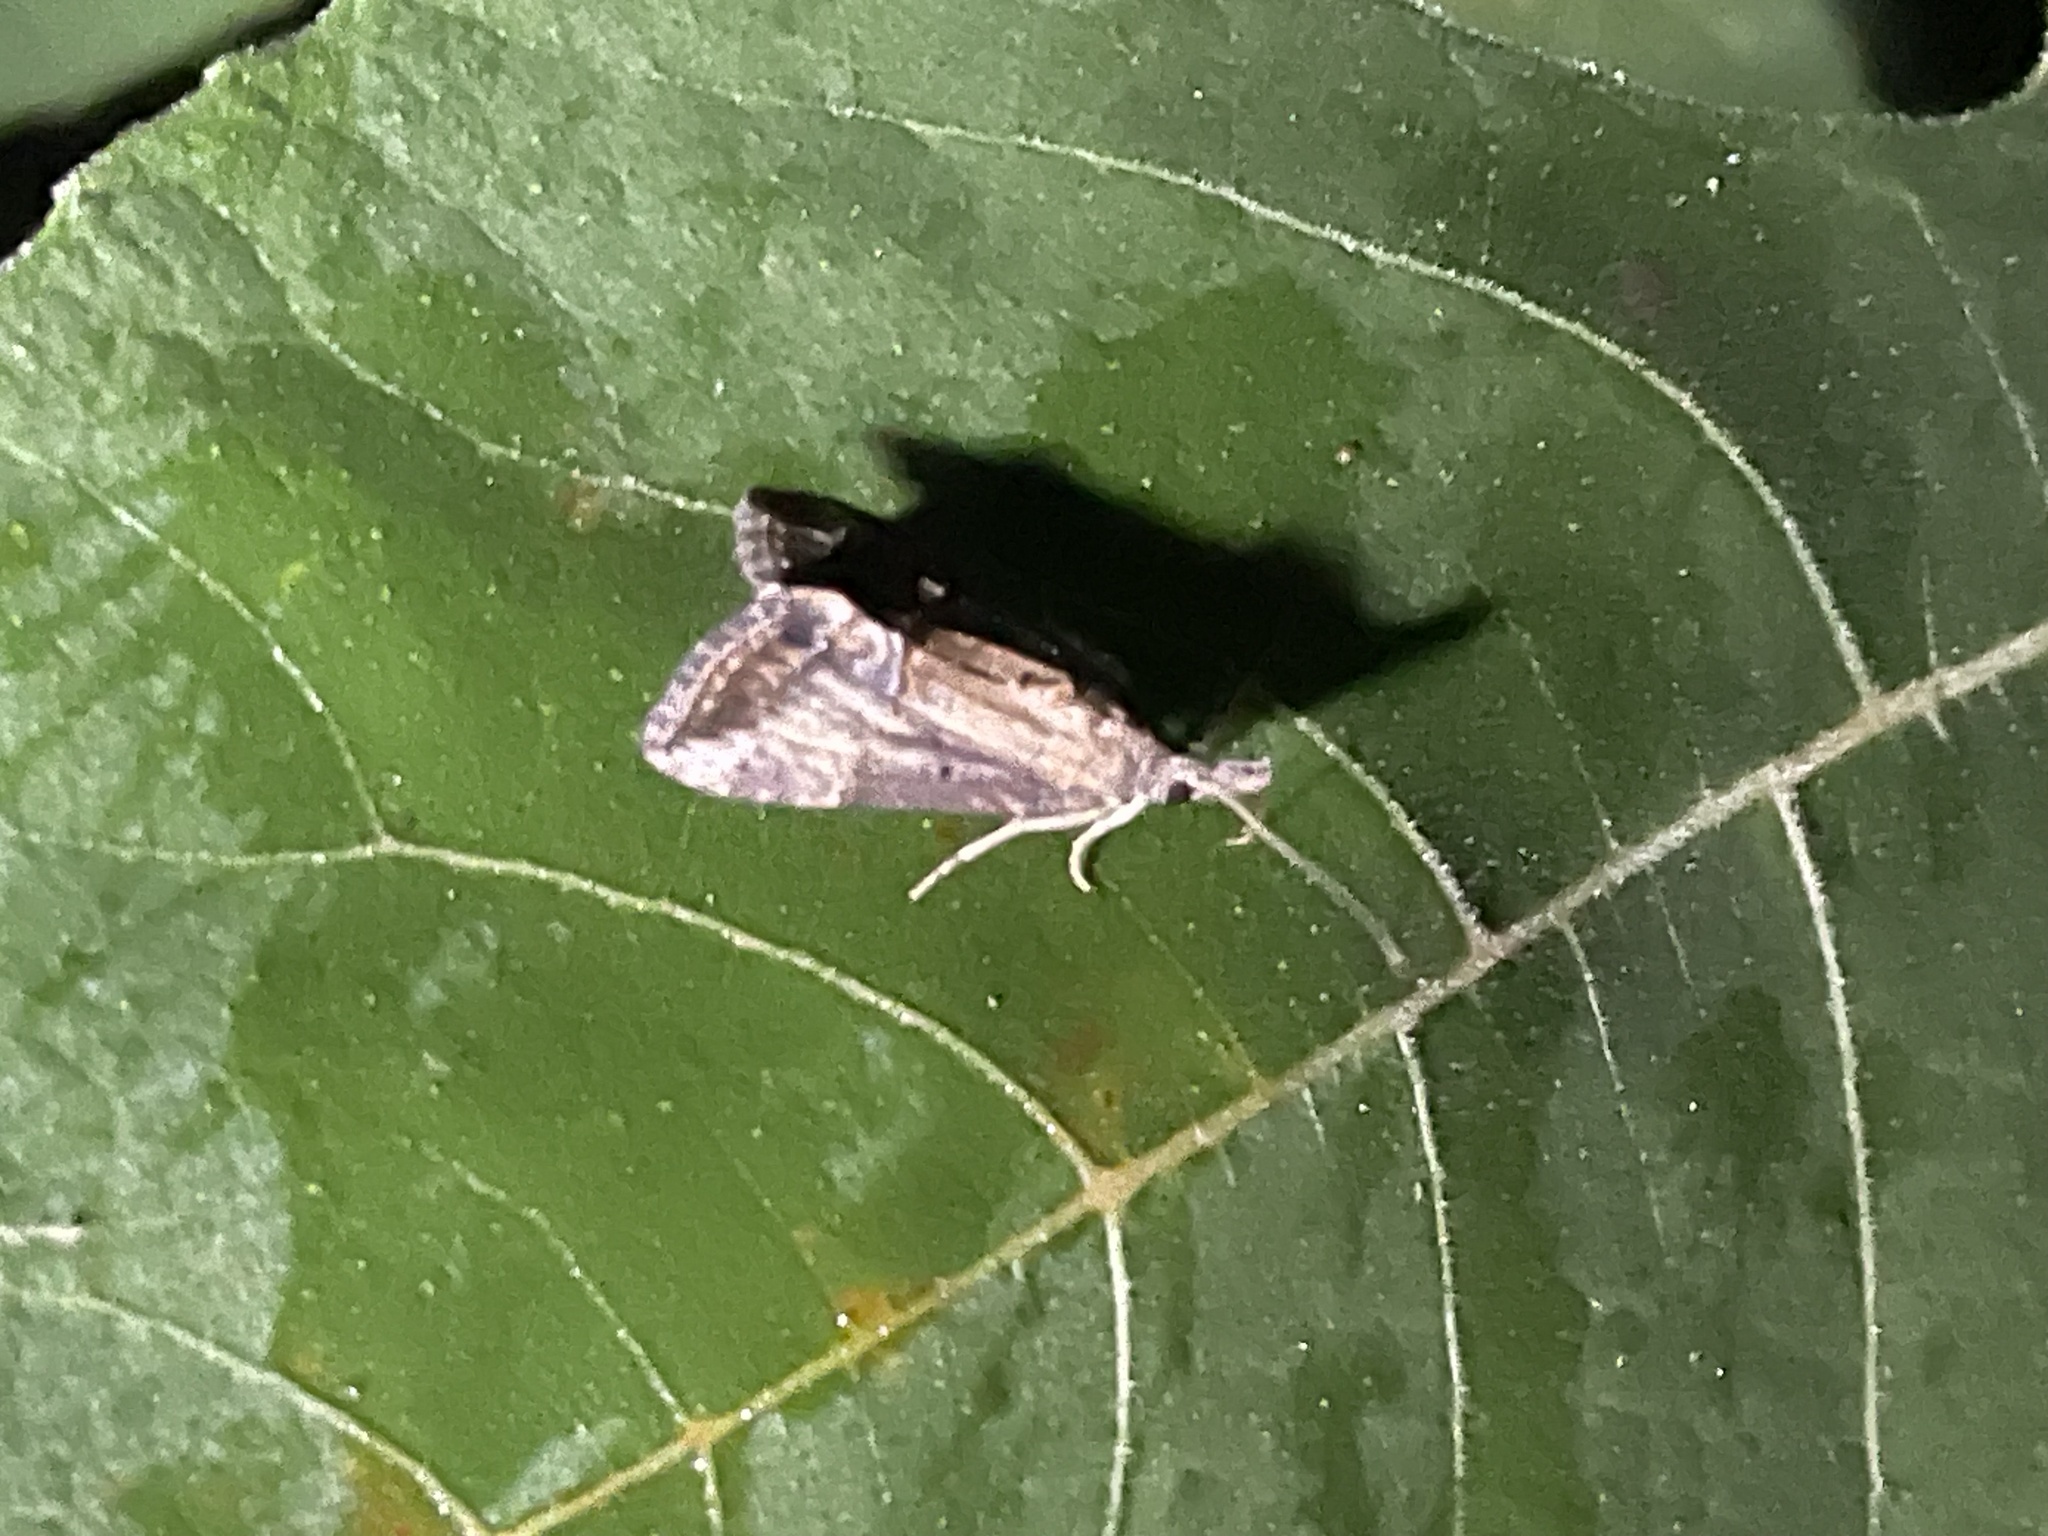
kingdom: Animalia
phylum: Arthropoda
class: Insecta
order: Lepidoptera
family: Erebidae
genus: Hypena
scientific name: Hypena scabra
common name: Green cloverworm
